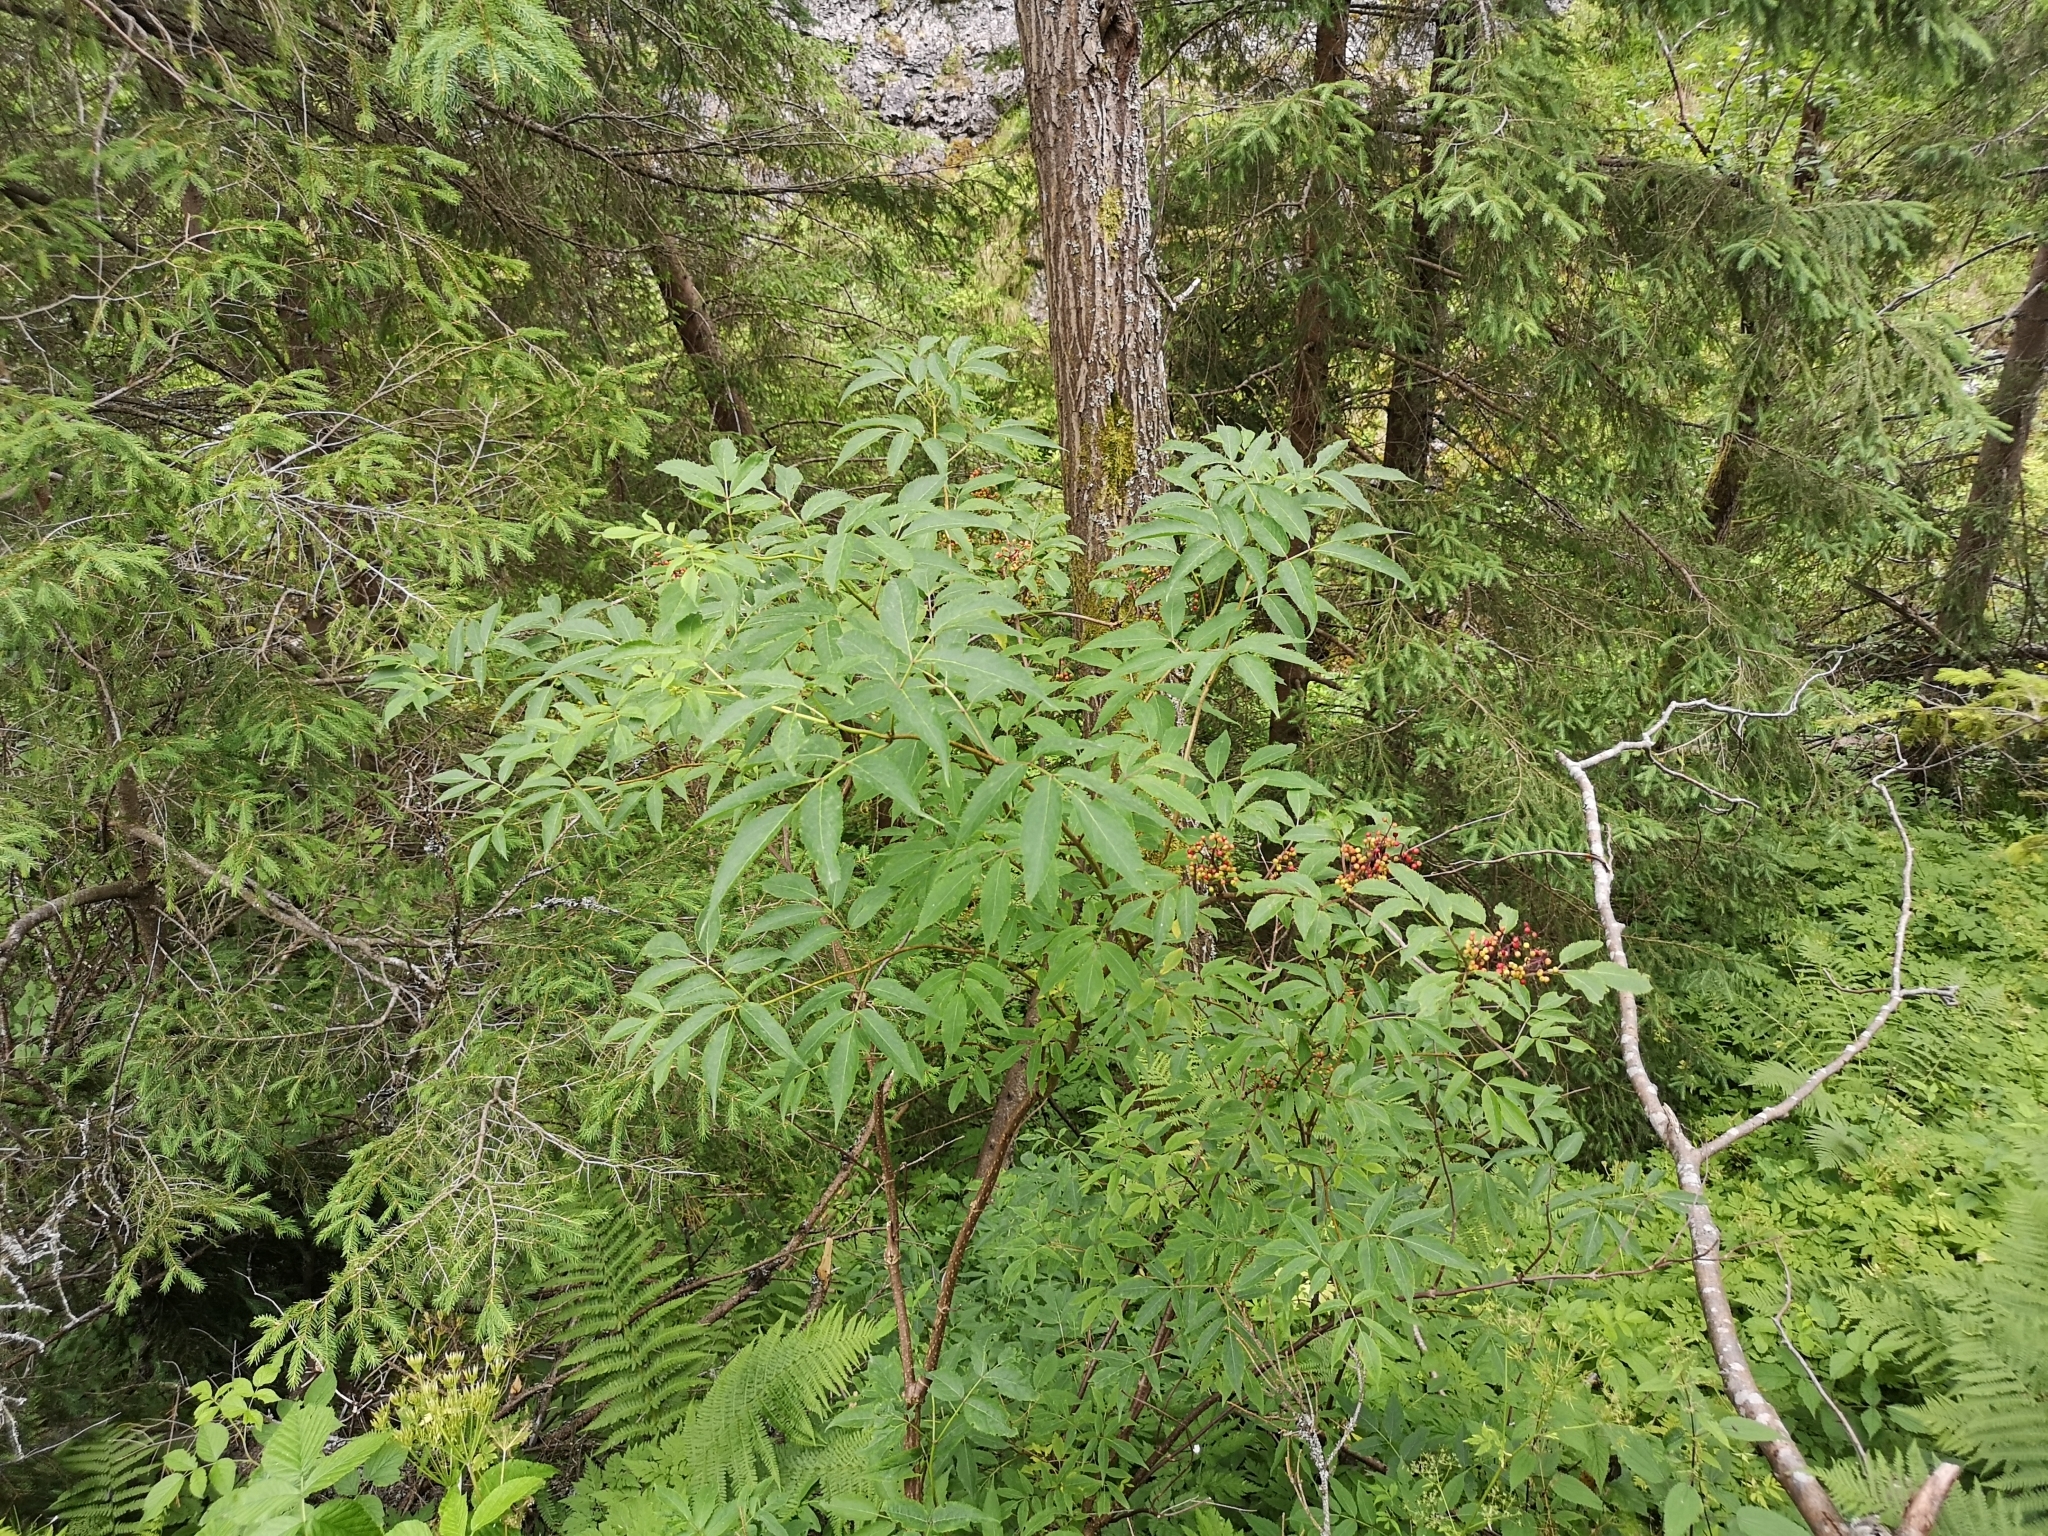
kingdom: Plantae
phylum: Tracheophyta
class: Magnoliopsida
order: Dipsacales
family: Viburnaceae
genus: Sambucus
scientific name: Sambucus racemosa
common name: Red-berried elder
